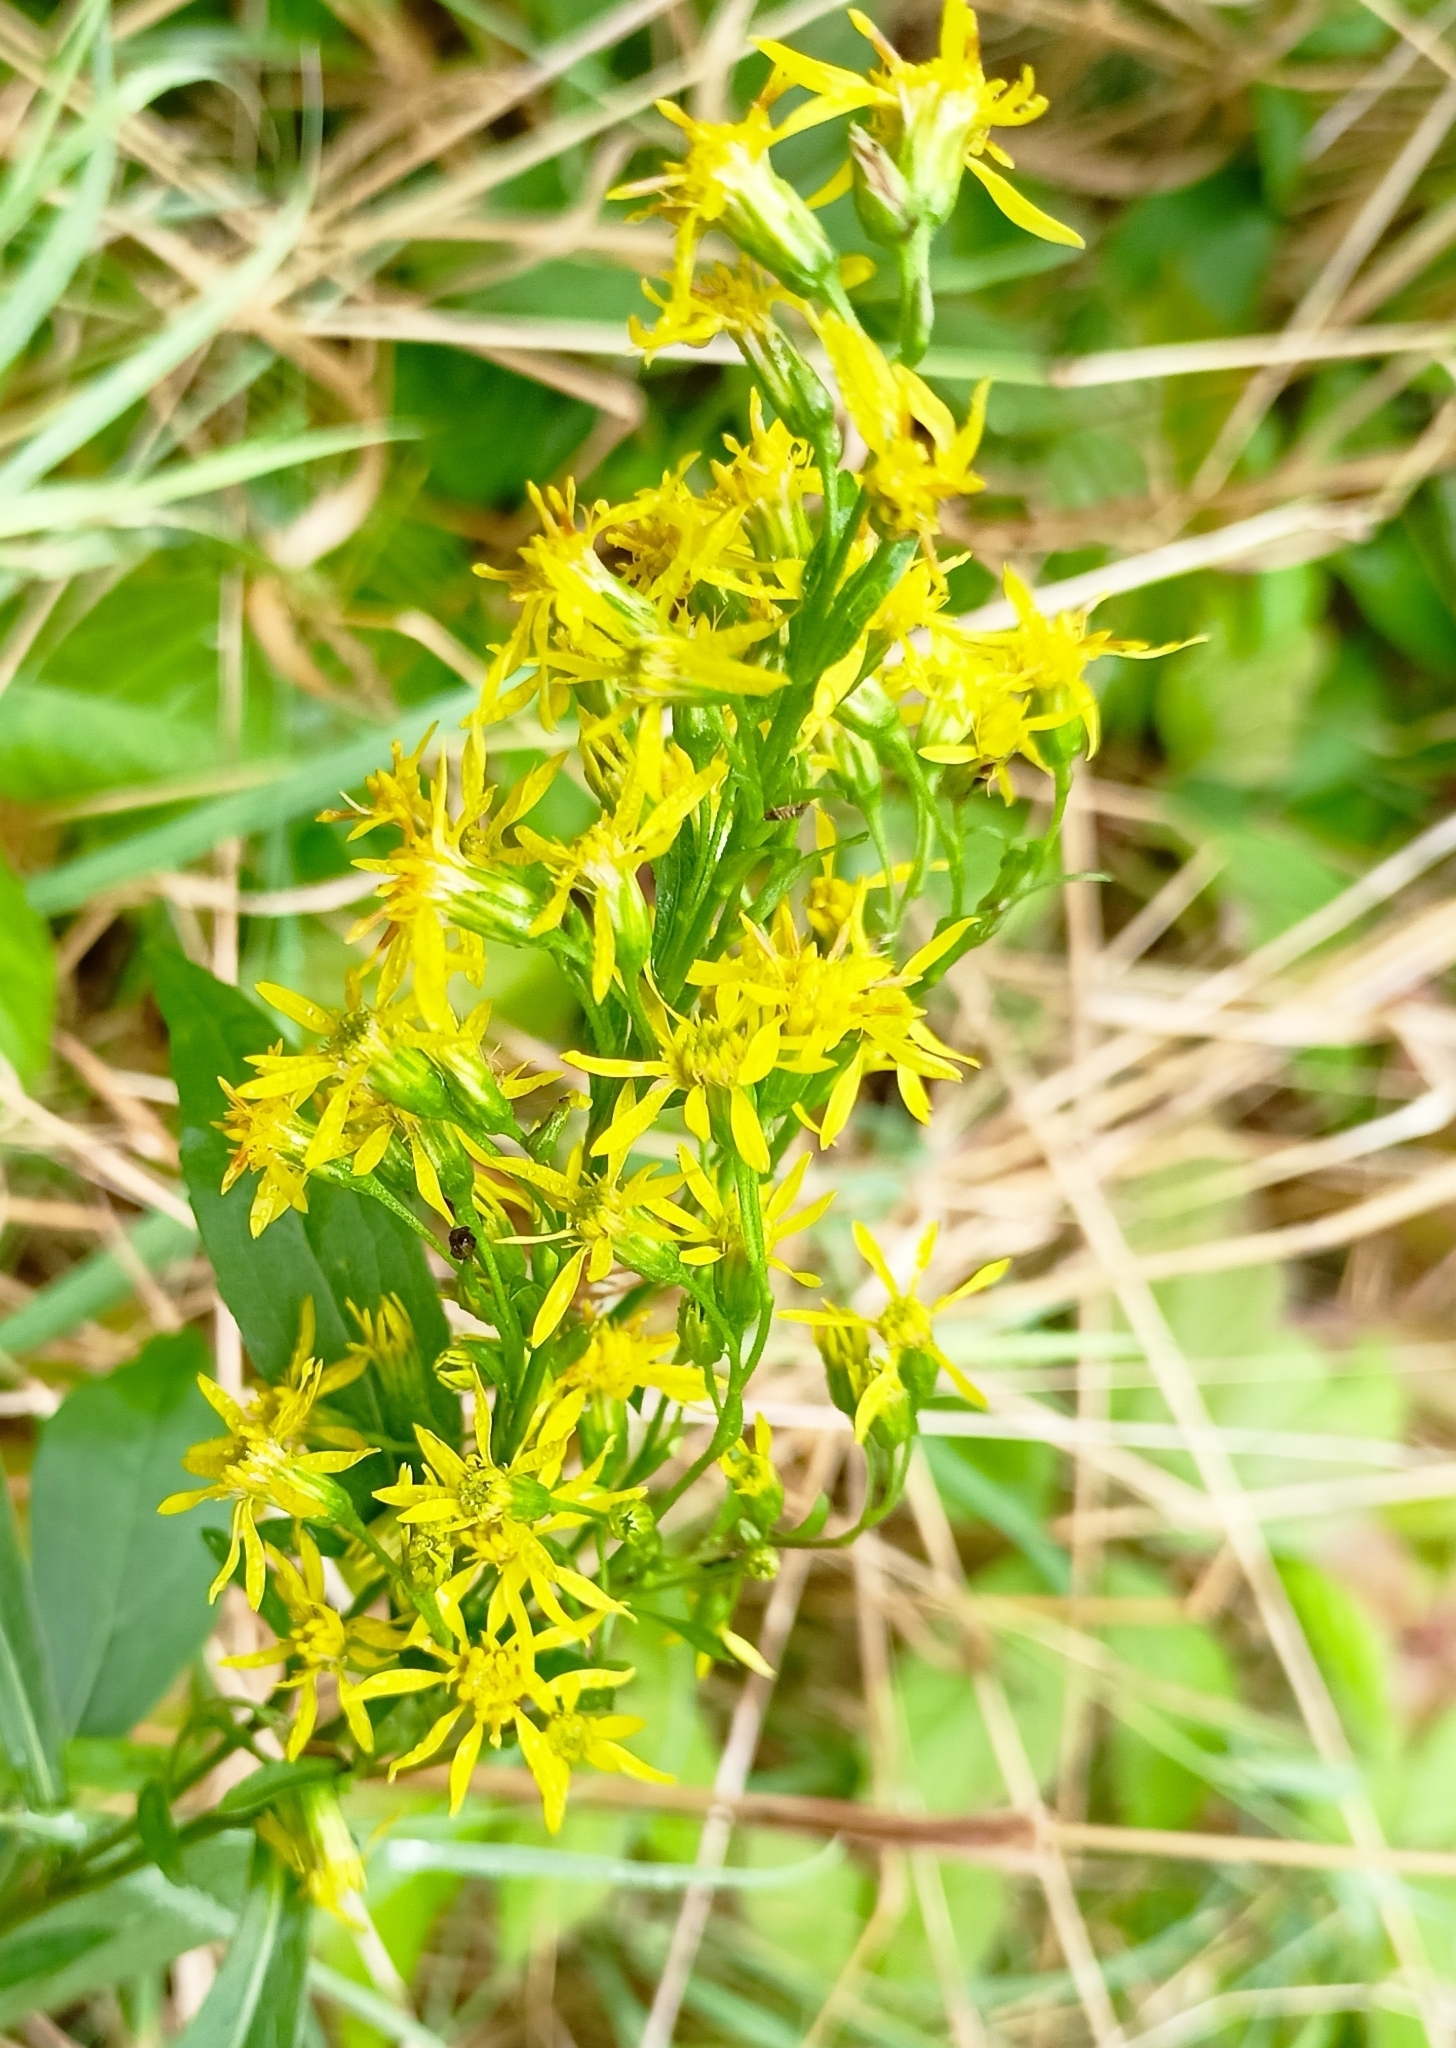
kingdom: Plantae
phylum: Tracheophyta
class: Magnoliopsida
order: Asterales
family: Asteraceae
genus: Solidago
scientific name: Solidago virgaurea
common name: Goldenrod
